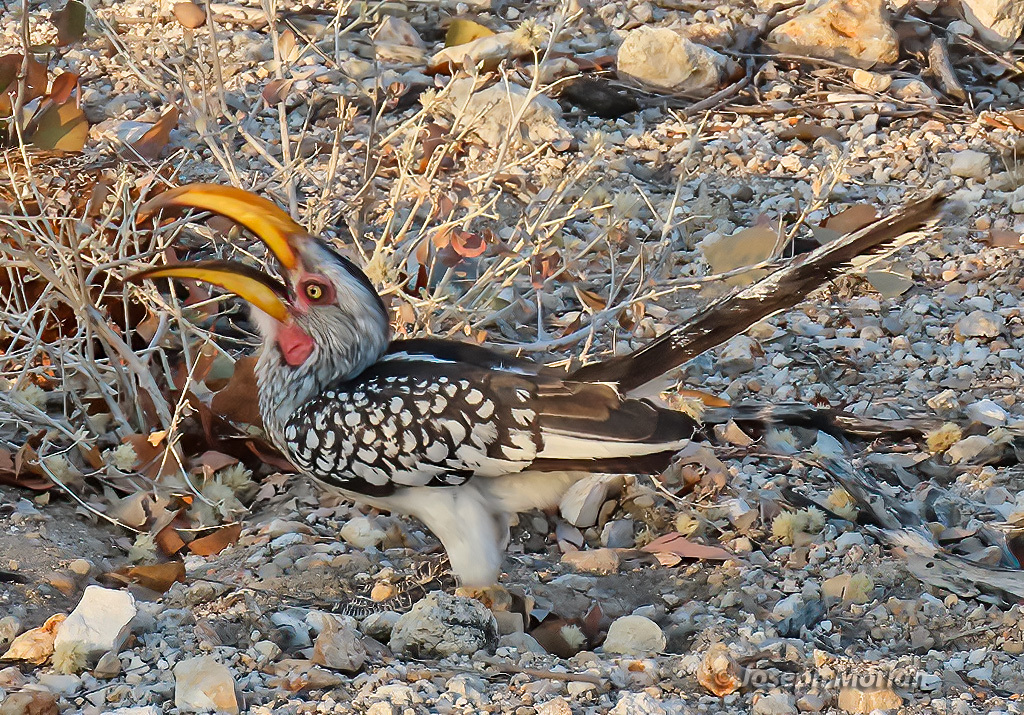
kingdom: Animalia
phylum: Chordata
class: Aves
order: Bucerotiformes
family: Bucerotidae
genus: Tockus
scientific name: Tockus leucomelas
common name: Southern yellow-billed hornbill
